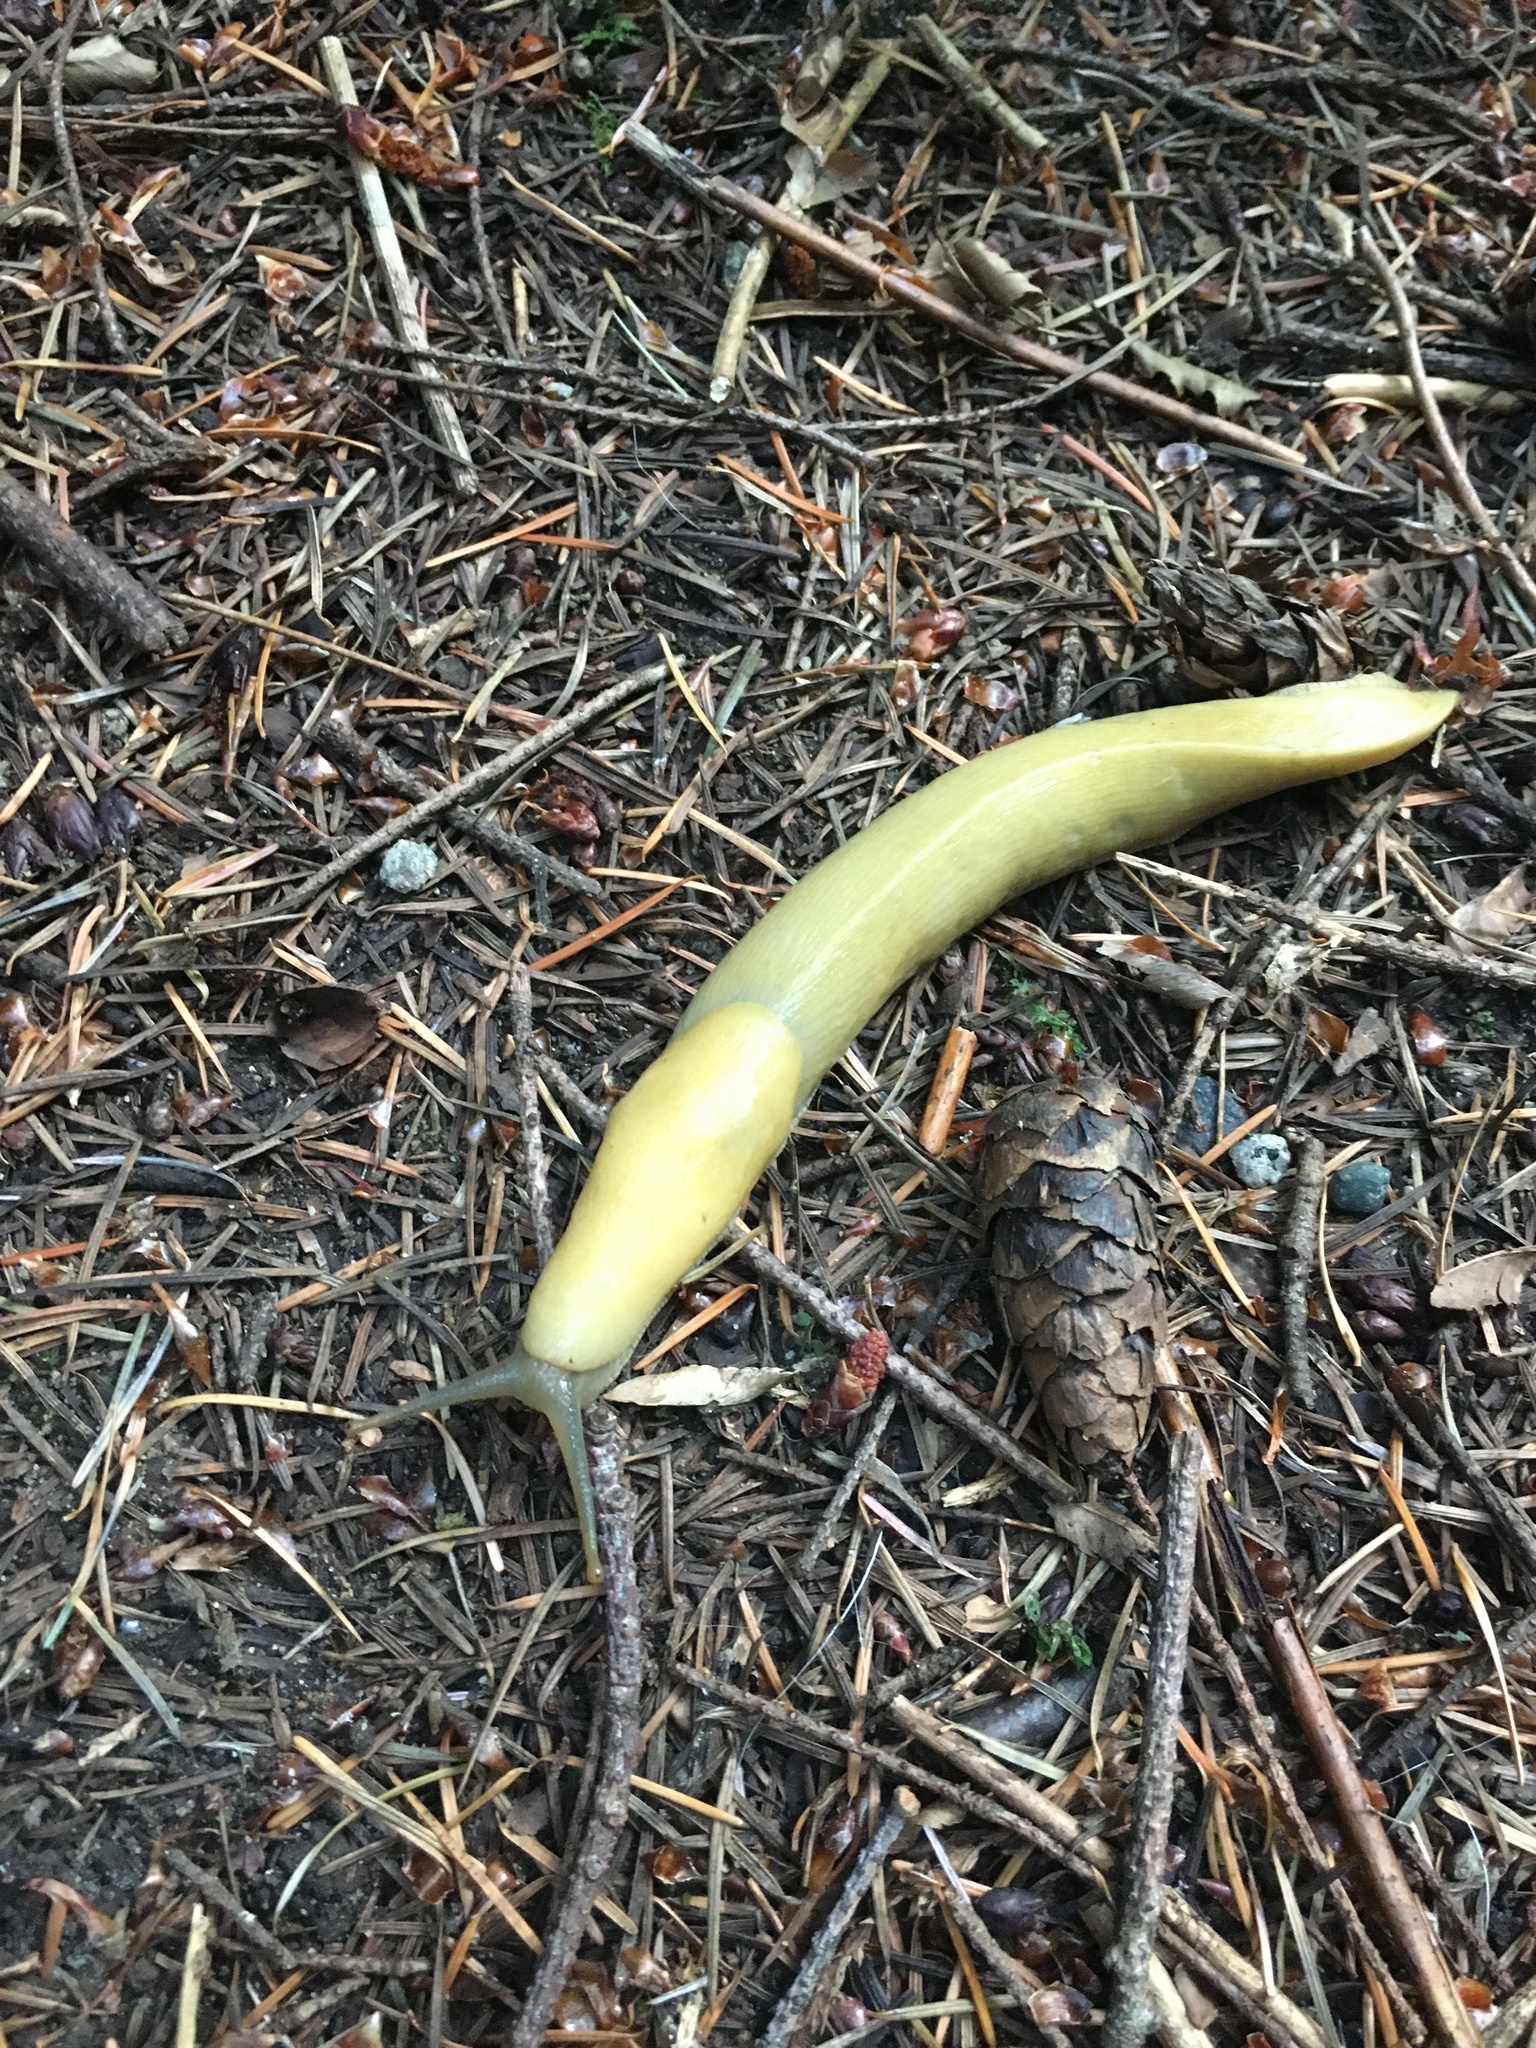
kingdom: Animalia
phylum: Mollusca
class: Gastropoda
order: Stylommatophora
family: Ariolimacidae
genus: Ariolimax
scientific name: Ariolimax columbianus
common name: Pacific banana slug
